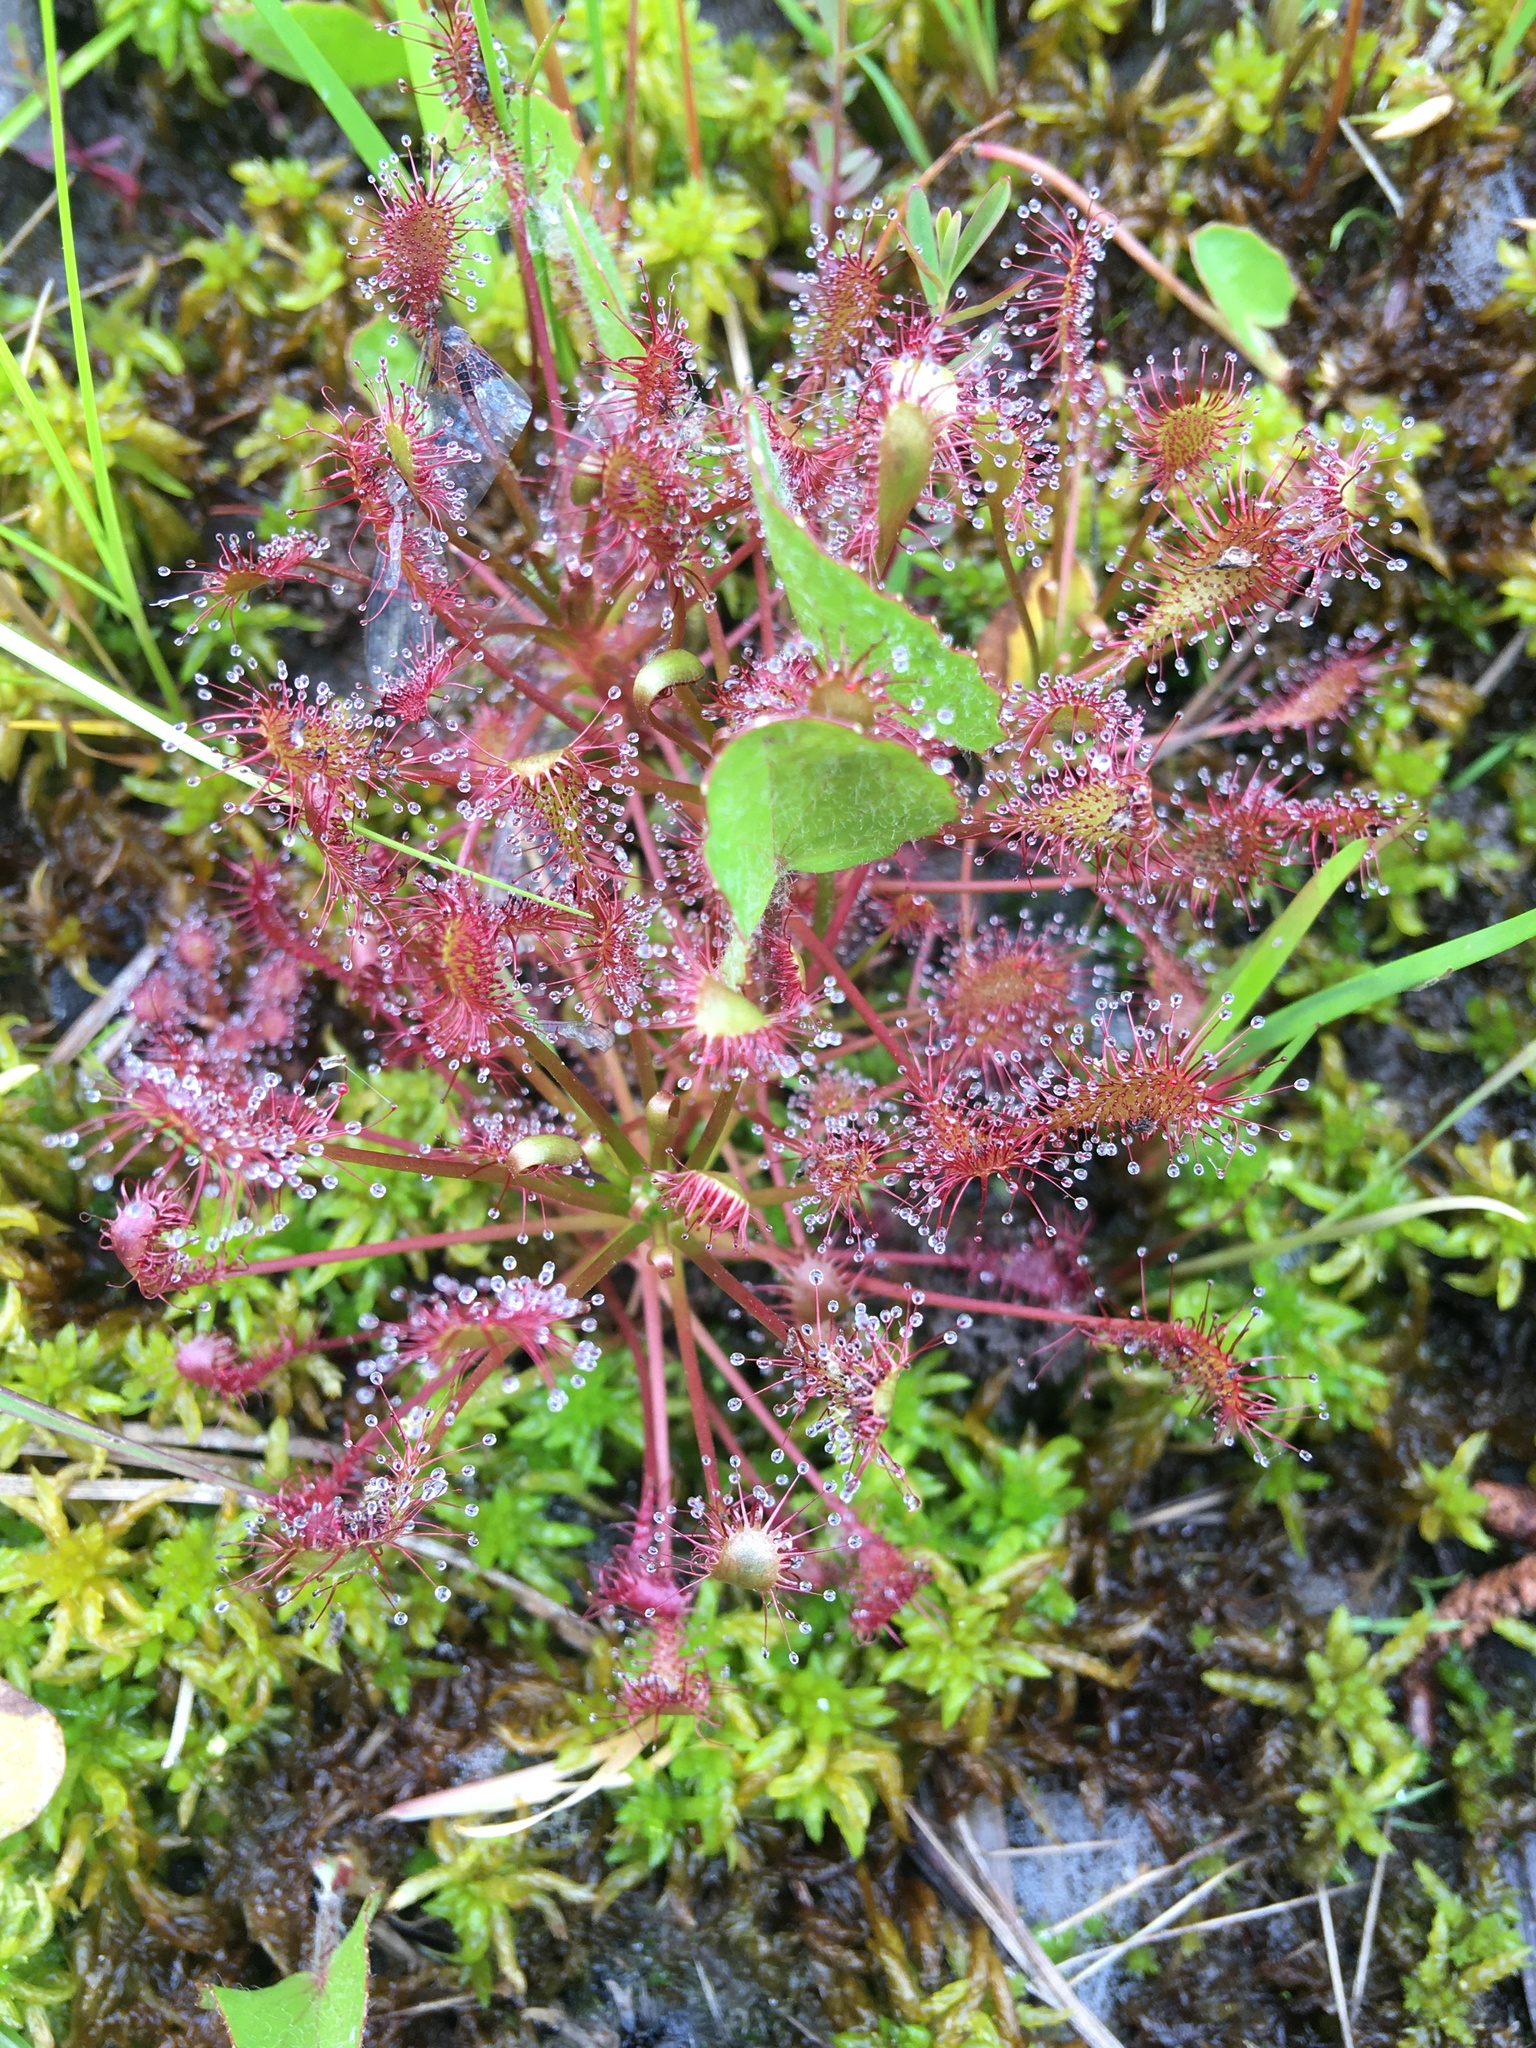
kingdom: Plantae
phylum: Tracheophyta
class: Magnoliopsida
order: Caryophyllales
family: Droseraceae
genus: Drosera
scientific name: Drosera intermedia
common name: Oblong-leaved sundew
